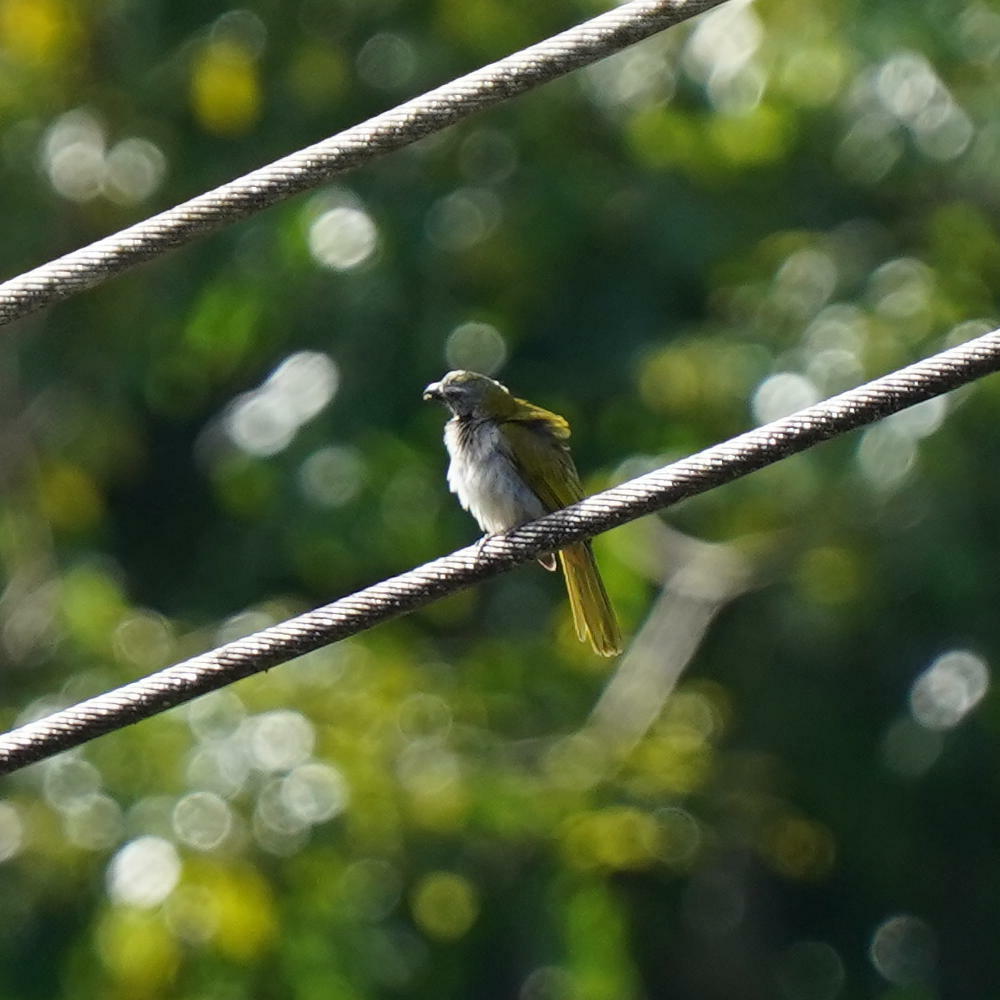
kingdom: Animalia
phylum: Chordata
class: Aves
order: Passeriformes
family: Thraupidae
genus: Saltator
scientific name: Saltator maximus
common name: Buff-throated saltator
